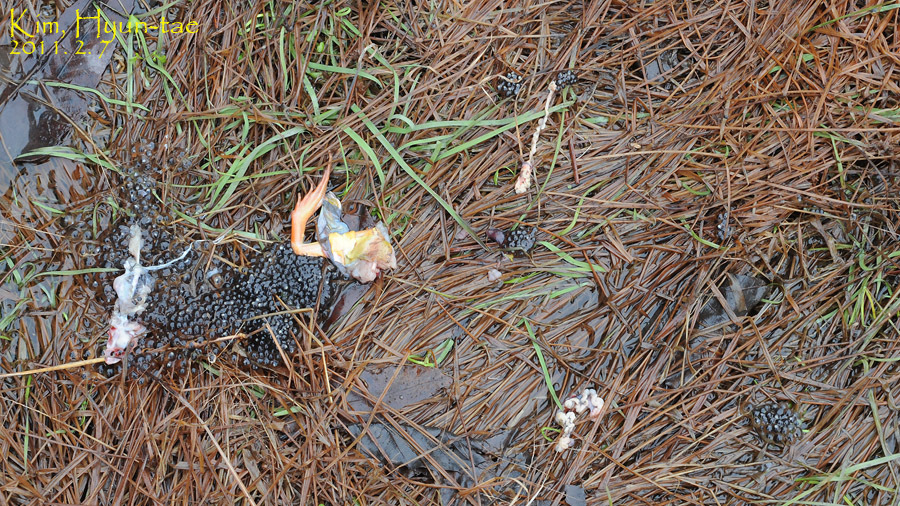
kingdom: Animalia
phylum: Chordata
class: Amphibia
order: Anura
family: Ranidae
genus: Rana
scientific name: Rana uenoi
